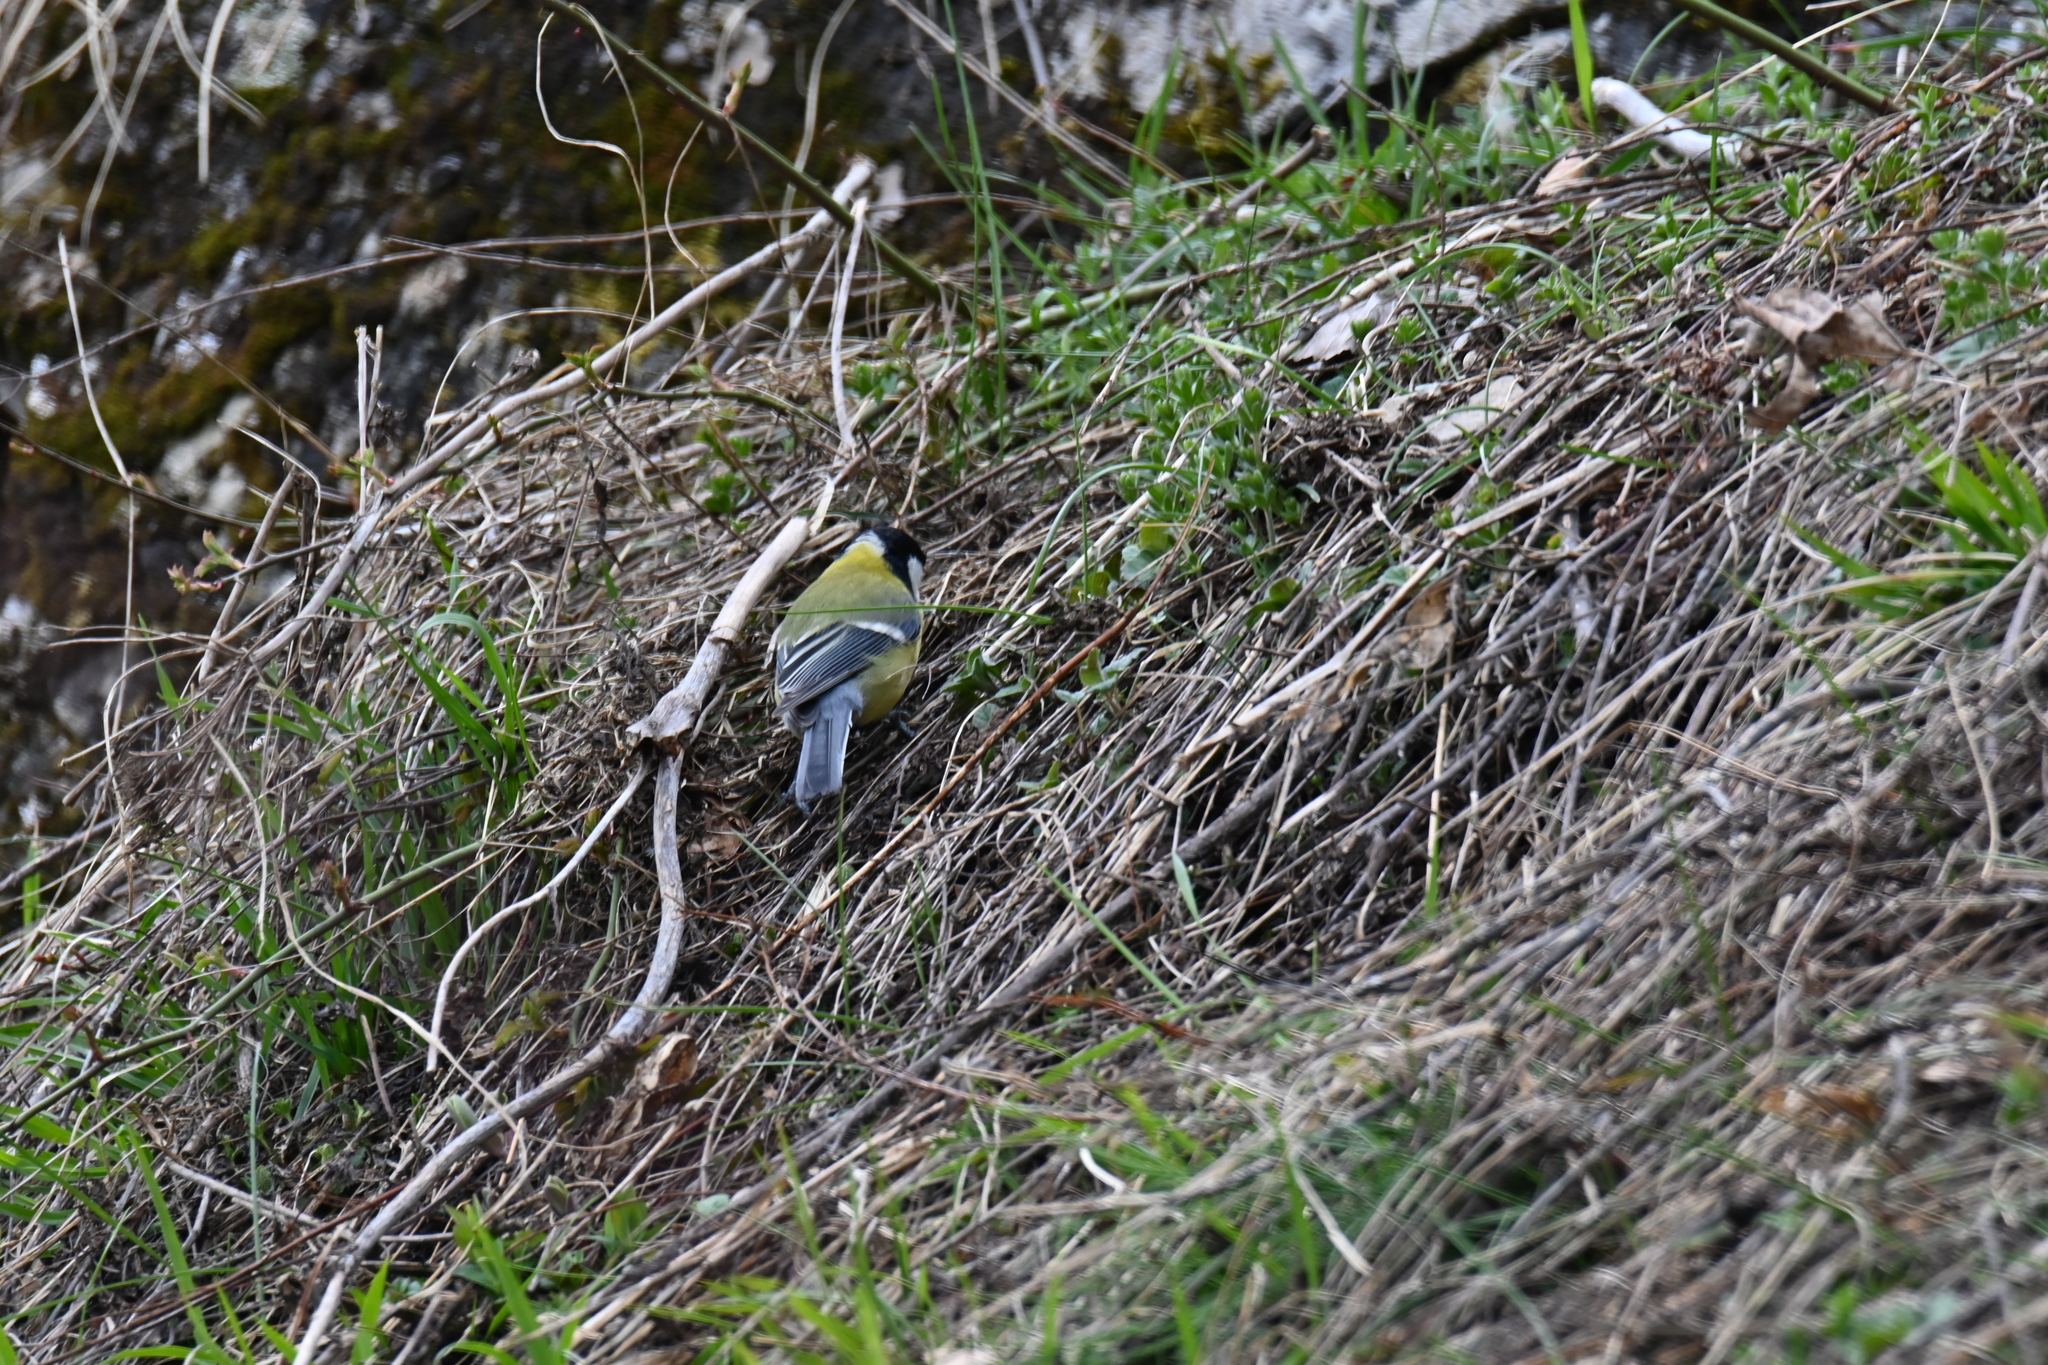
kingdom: Animalia
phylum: Chordata
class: Aves
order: Passeriformes
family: Paridae
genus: Parus
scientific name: Parus major
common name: Great tit
